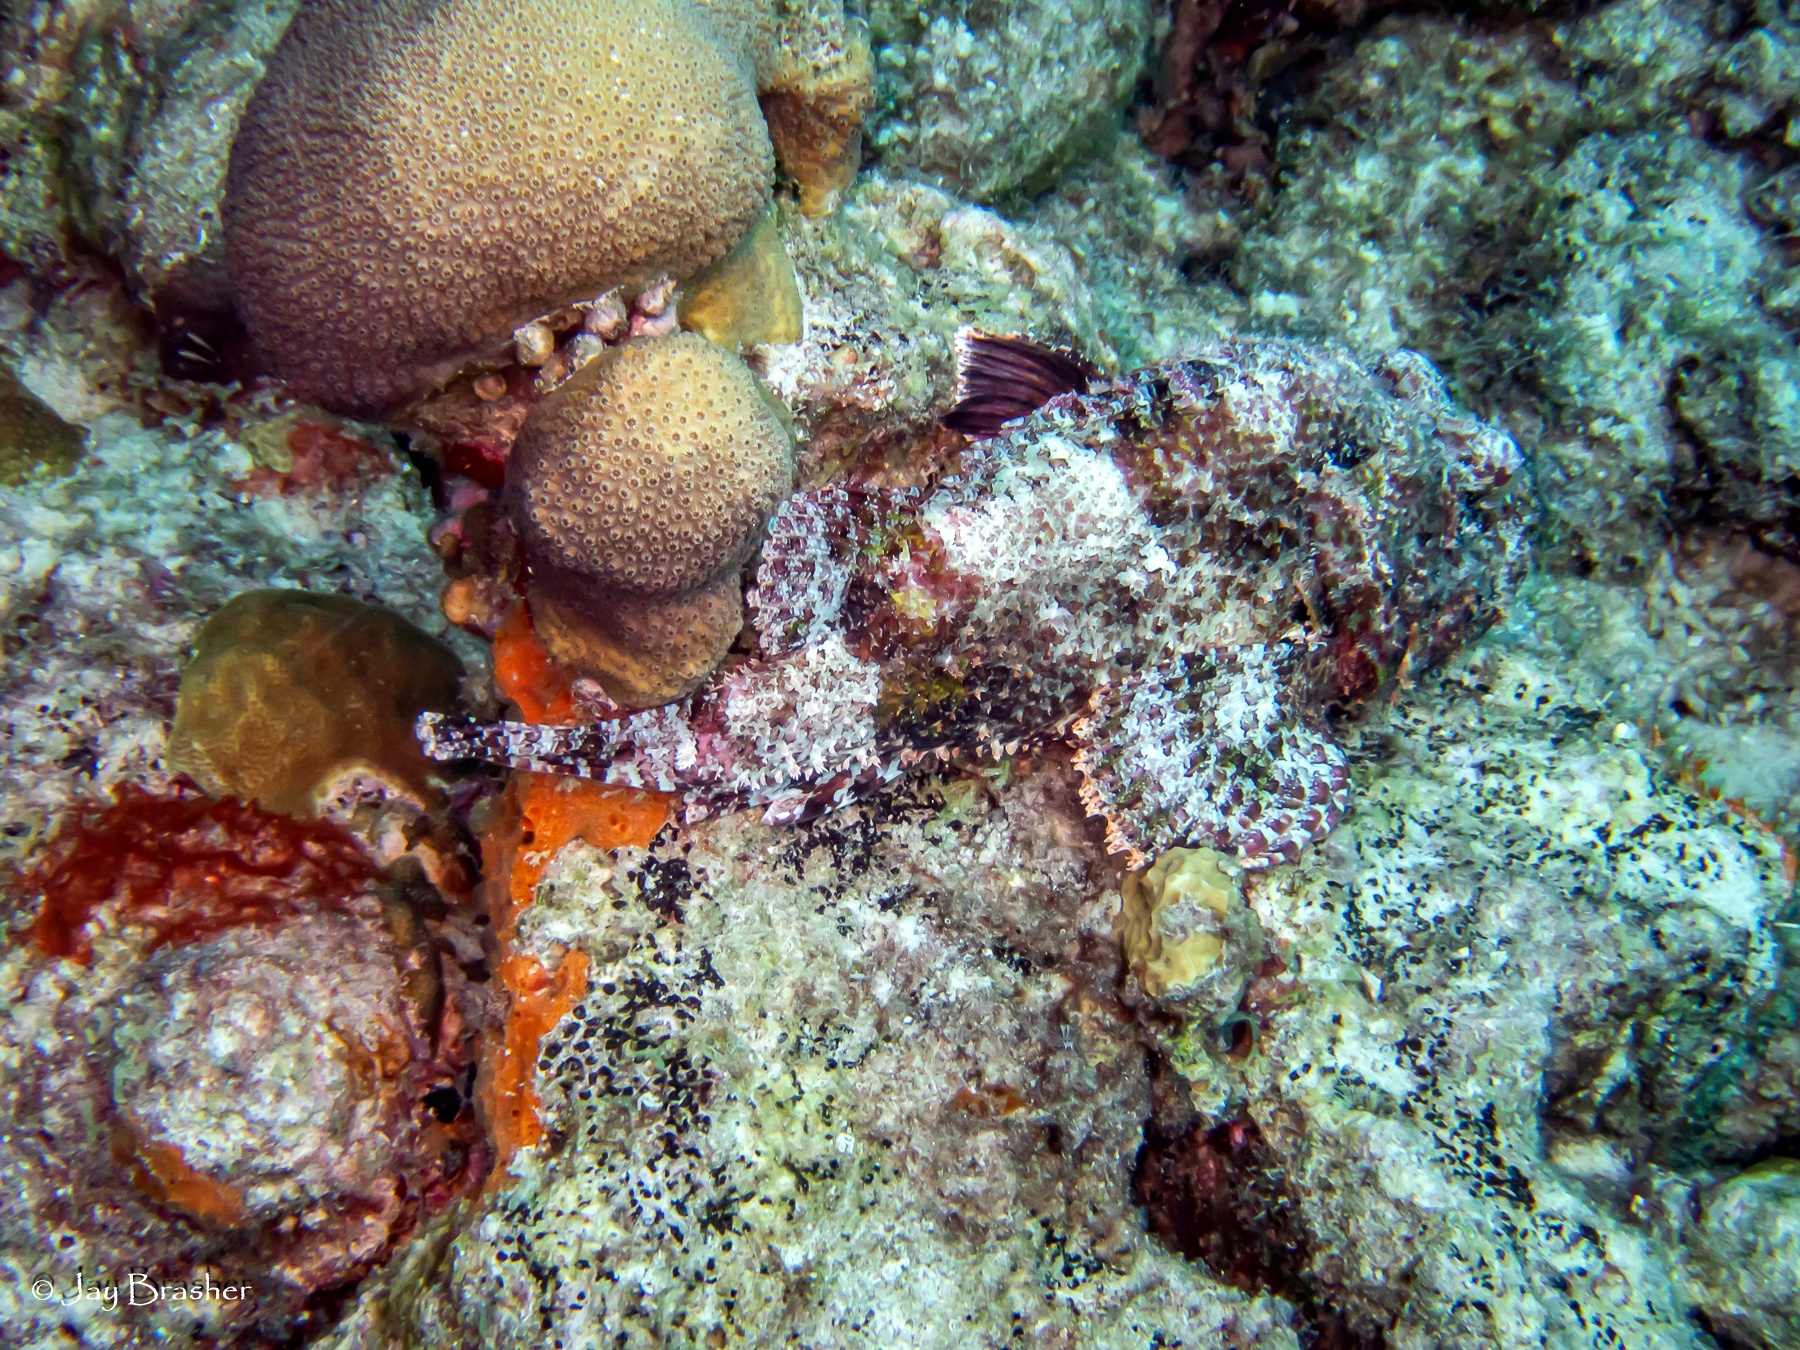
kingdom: Animalia
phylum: Chordata
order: Scorpaeniformes
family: Scorpaenidae
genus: Scorpaena
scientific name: Scorpaena plumieri
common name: Spotted scorpionfish
